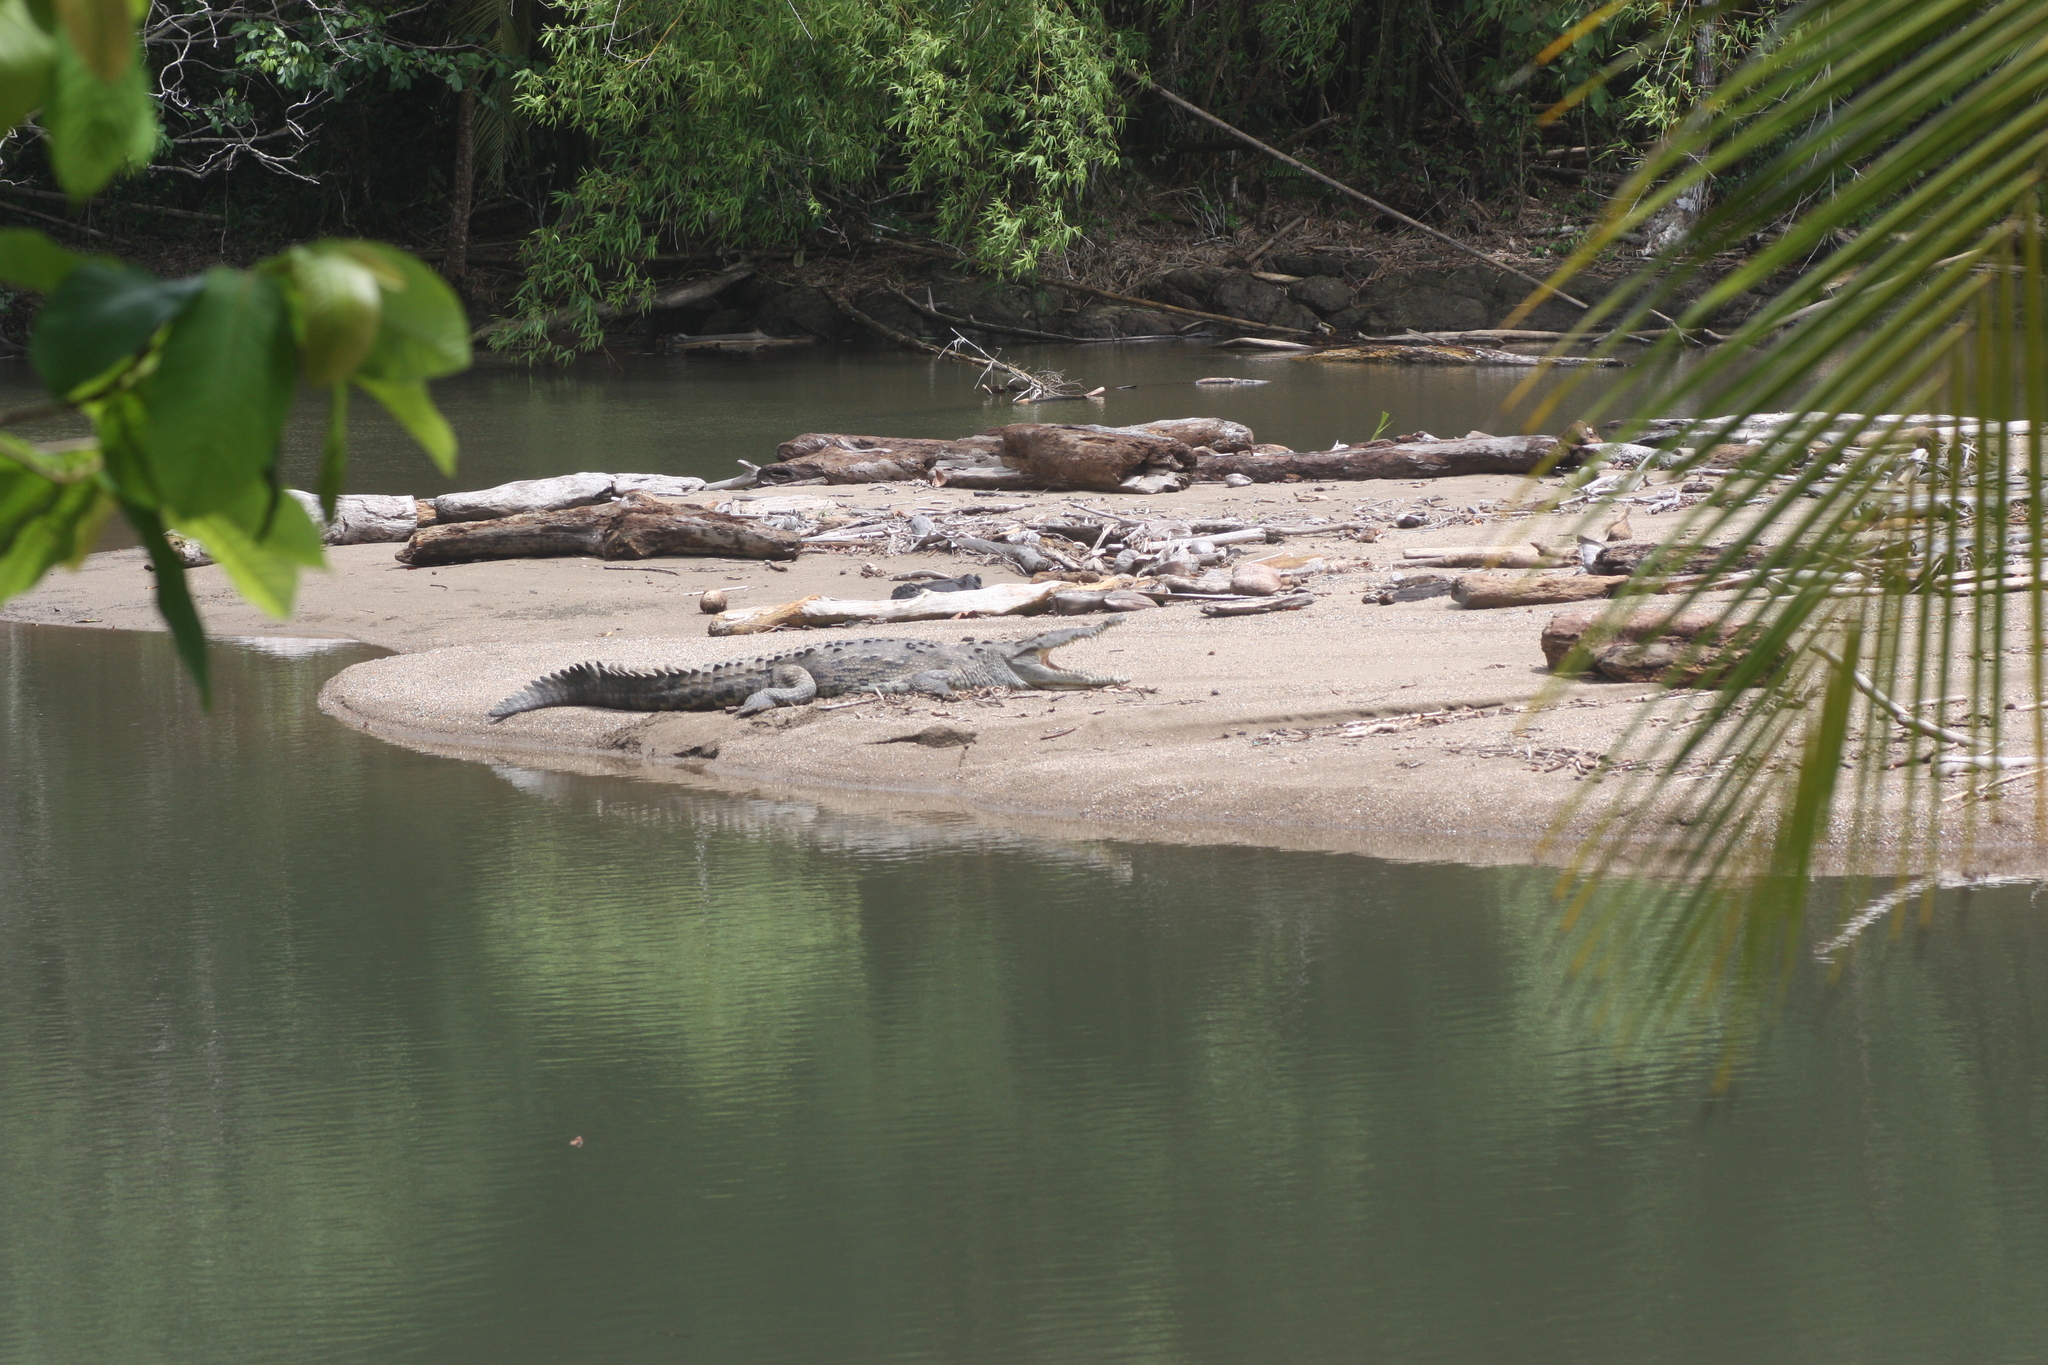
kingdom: Animalia
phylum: Chordata
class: Crocodylia
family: Crocodylidae
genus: Crocodylus
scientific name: Crocodylus acutus
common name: American crocodile
